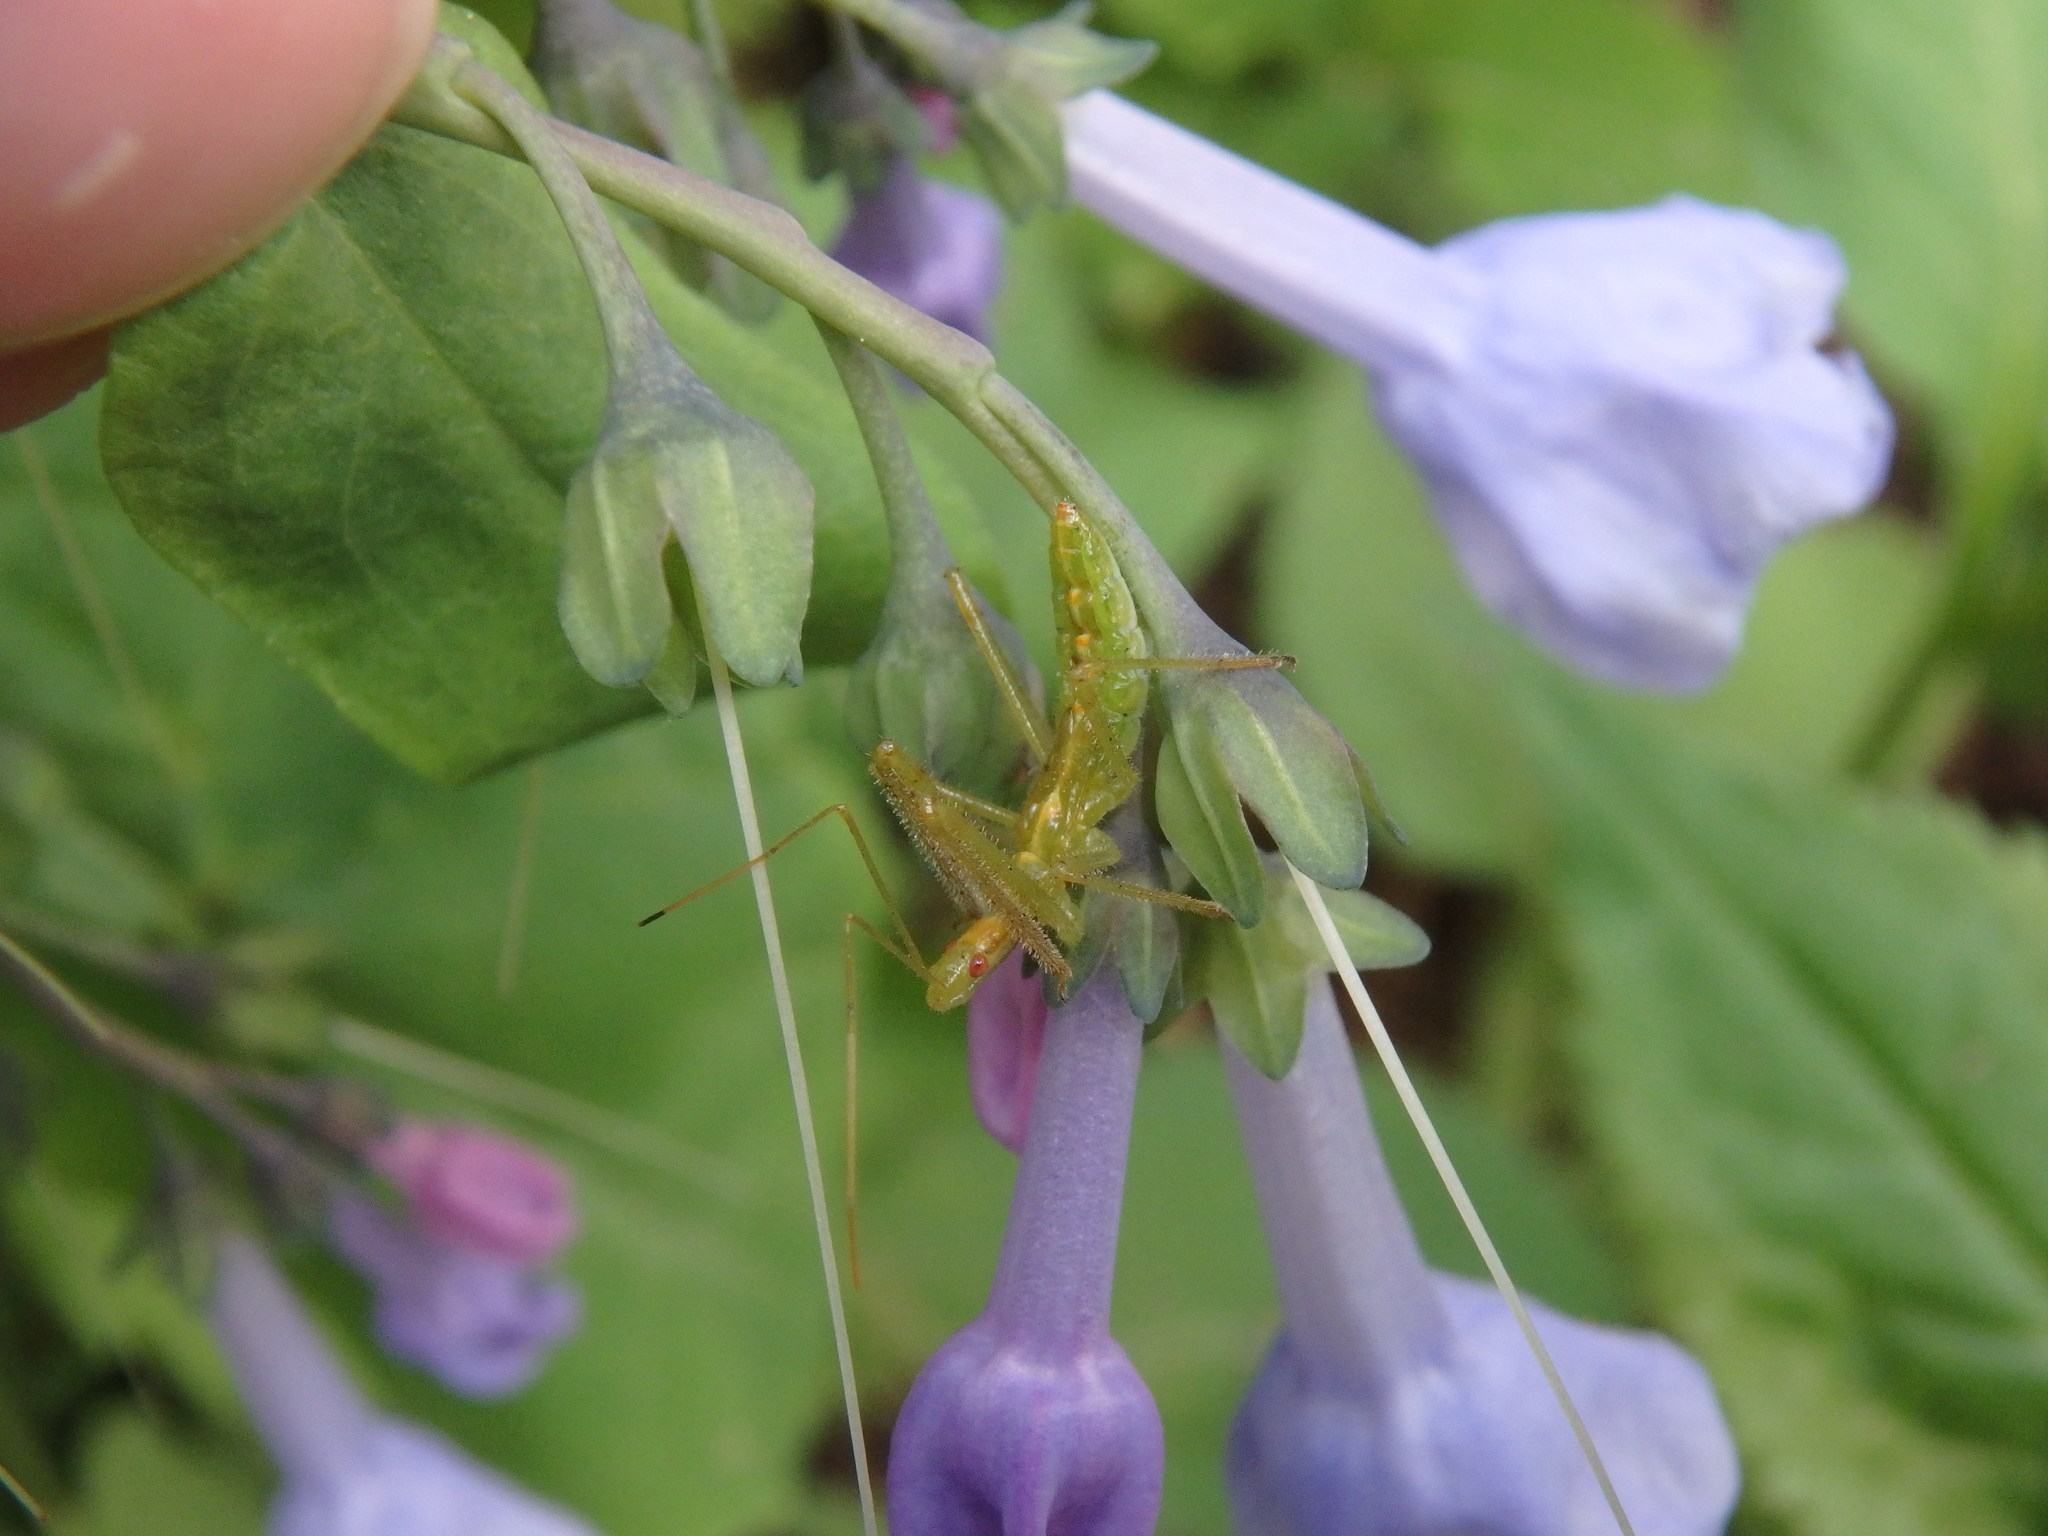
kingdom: Plantae
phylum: Tracheophyta
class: Magnoliopsida
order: Boraginales
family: Boraginaceae
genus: Mertensia
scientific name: Mertensia virginica
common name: Virginia bluebells
